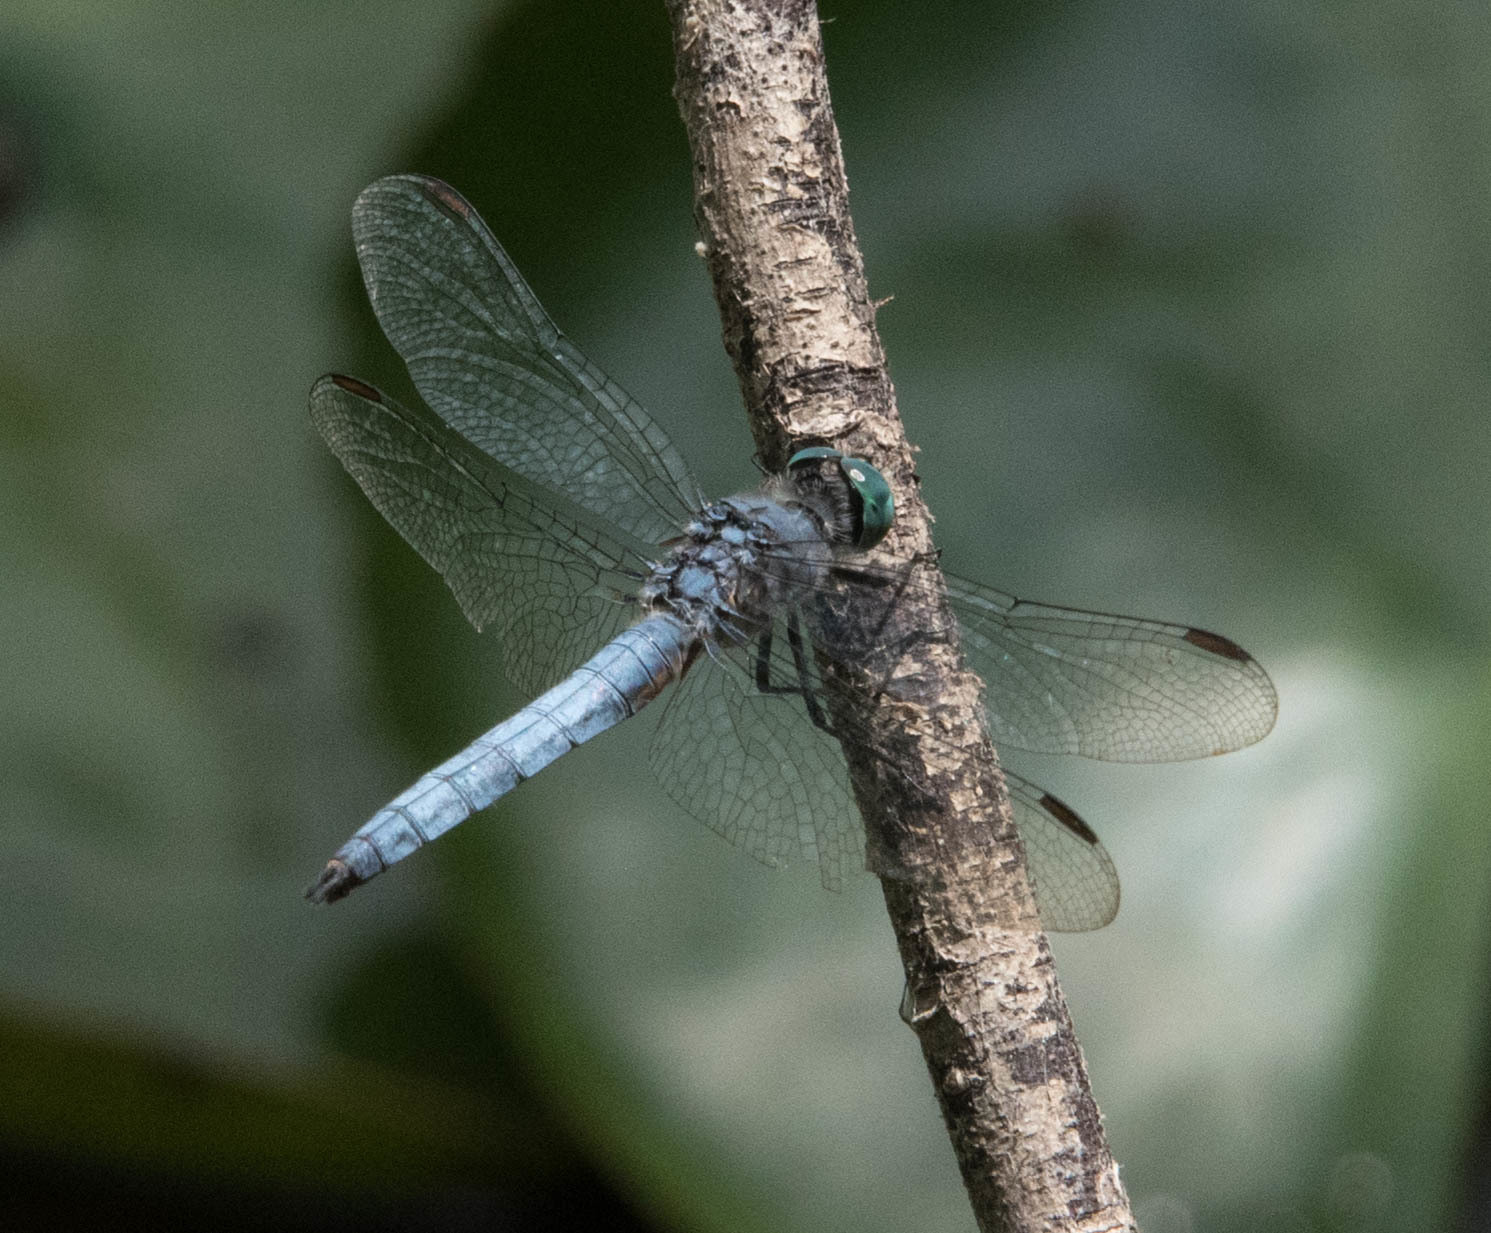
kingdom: Animalia
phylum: Arthropoda
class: Insecta
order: Odonata
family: Libellulidae
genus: Pachydiplax
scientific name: Pachydiplax longipennis
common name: Blue dasher
